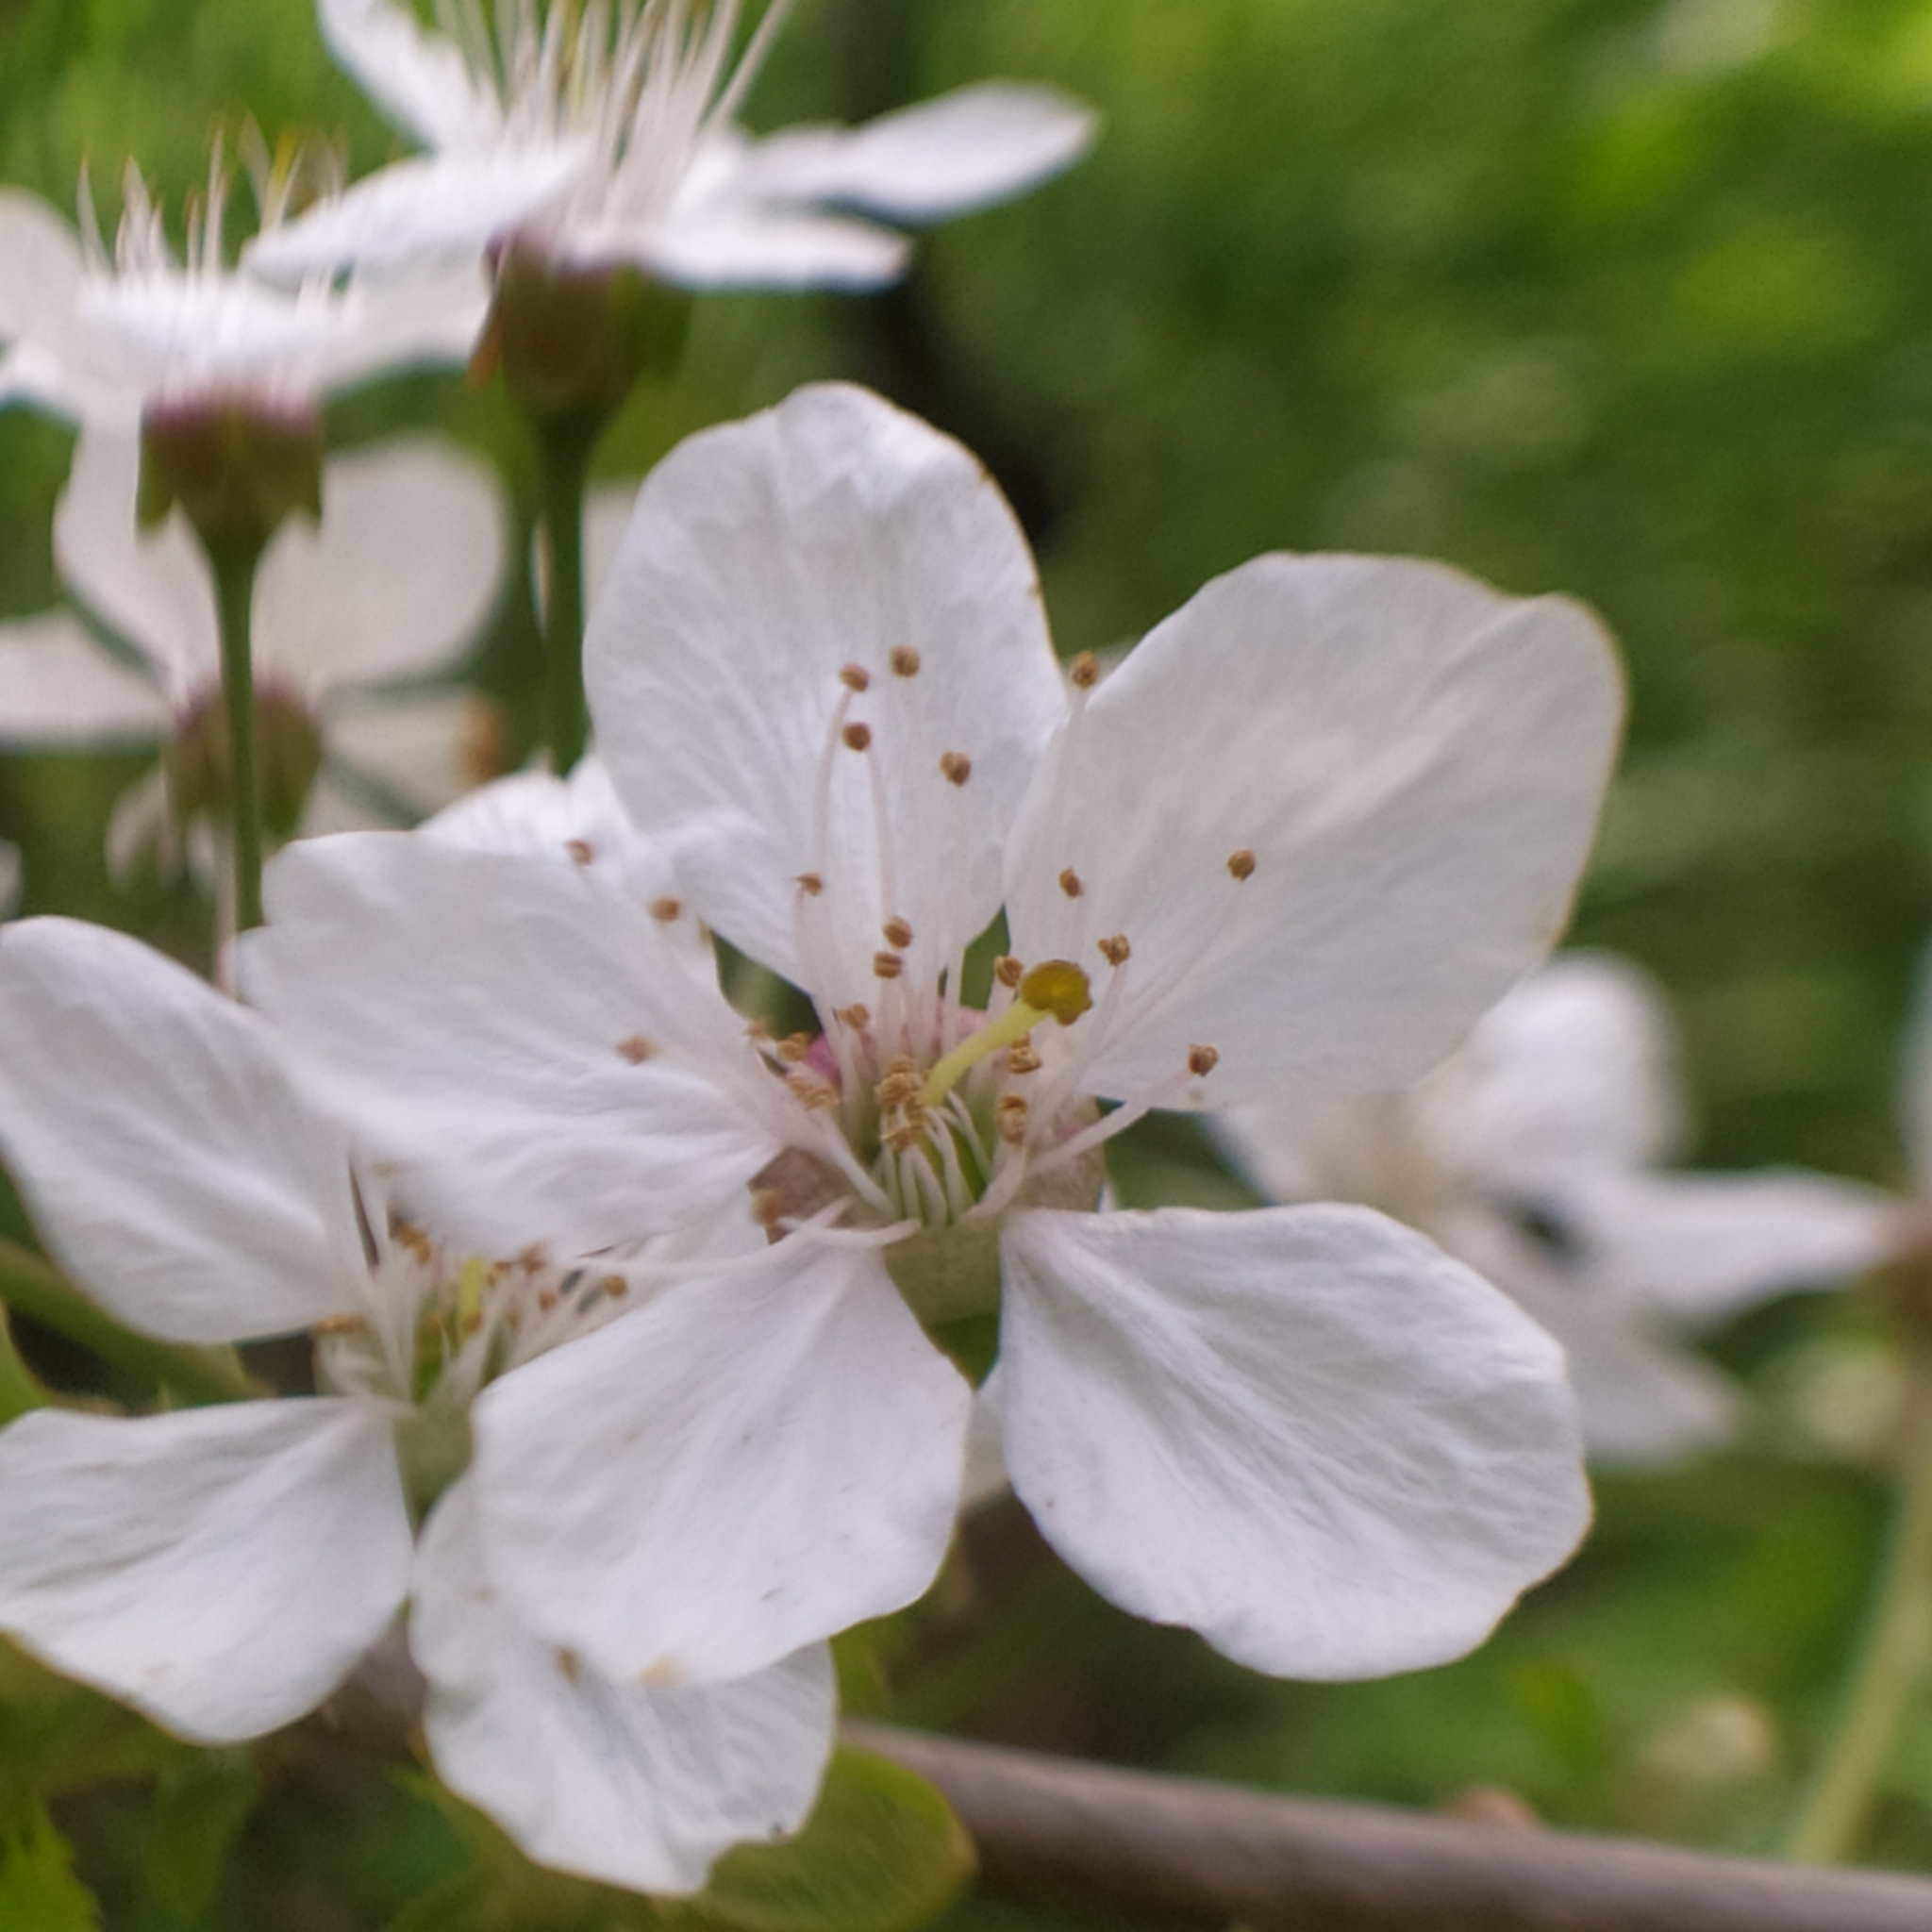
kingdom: Plantae
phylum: Tracheophyta
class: Magnoliopsida
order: Rosales
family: Rosaceae
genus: Prunus
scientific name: Prunus avium
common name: Sweet cherry
